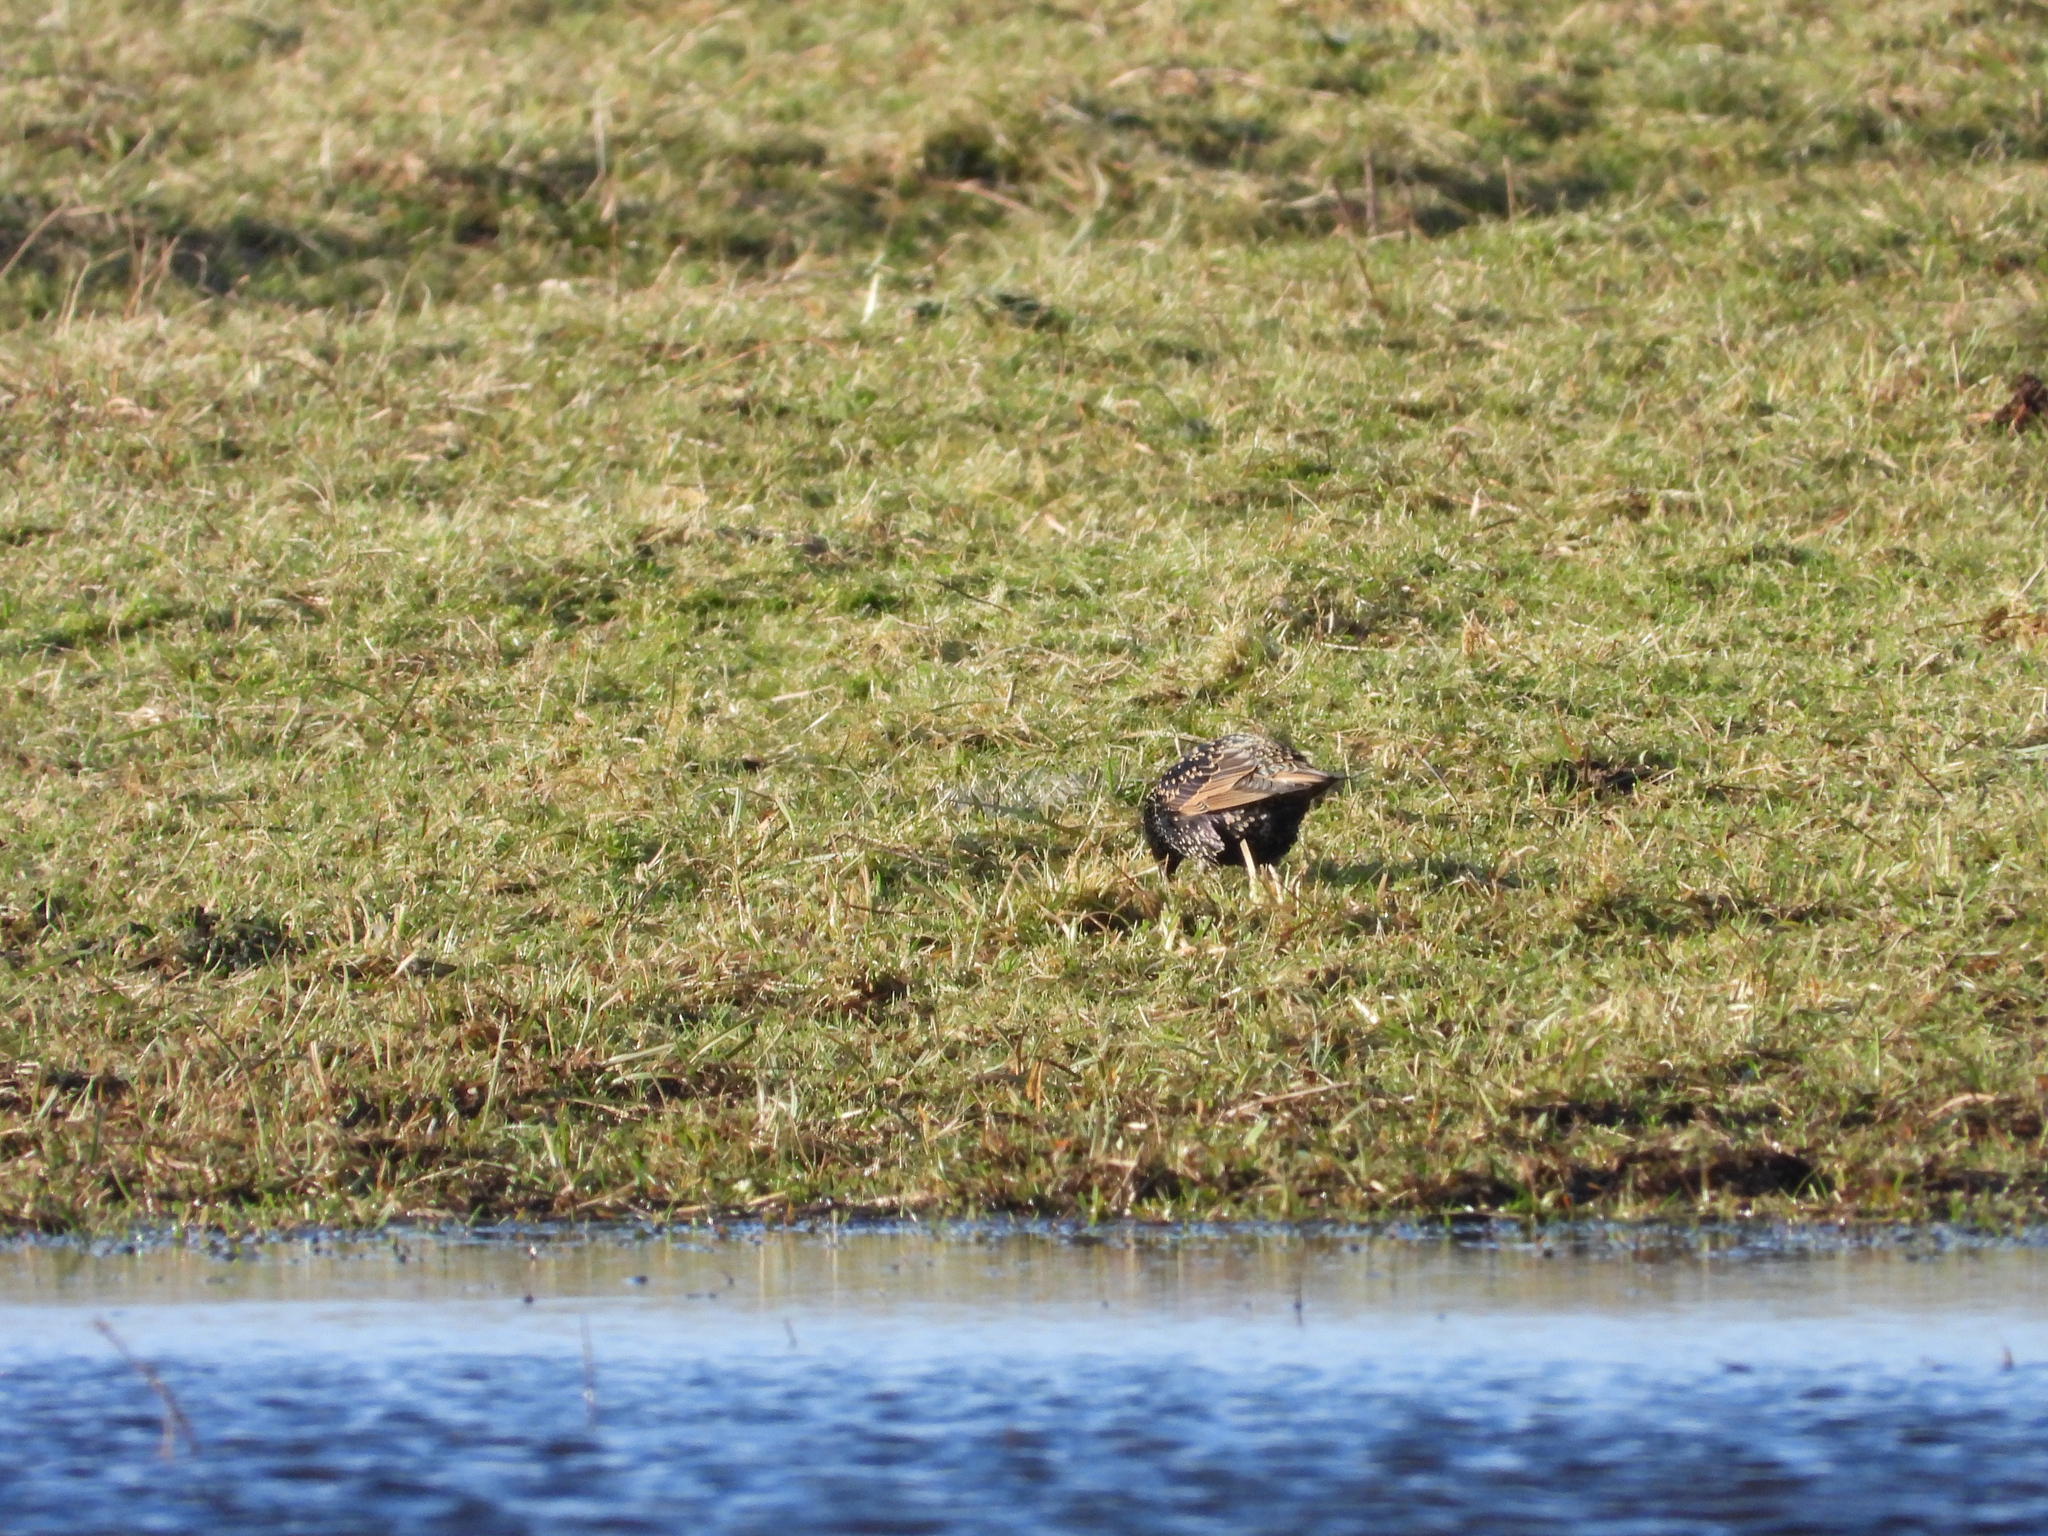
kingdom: Animalia
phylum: Chordata
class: Aves
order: Passeriformes
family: Sturnidae
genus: Sturnus
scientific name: Sturnus vulgaris
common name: Common starling
